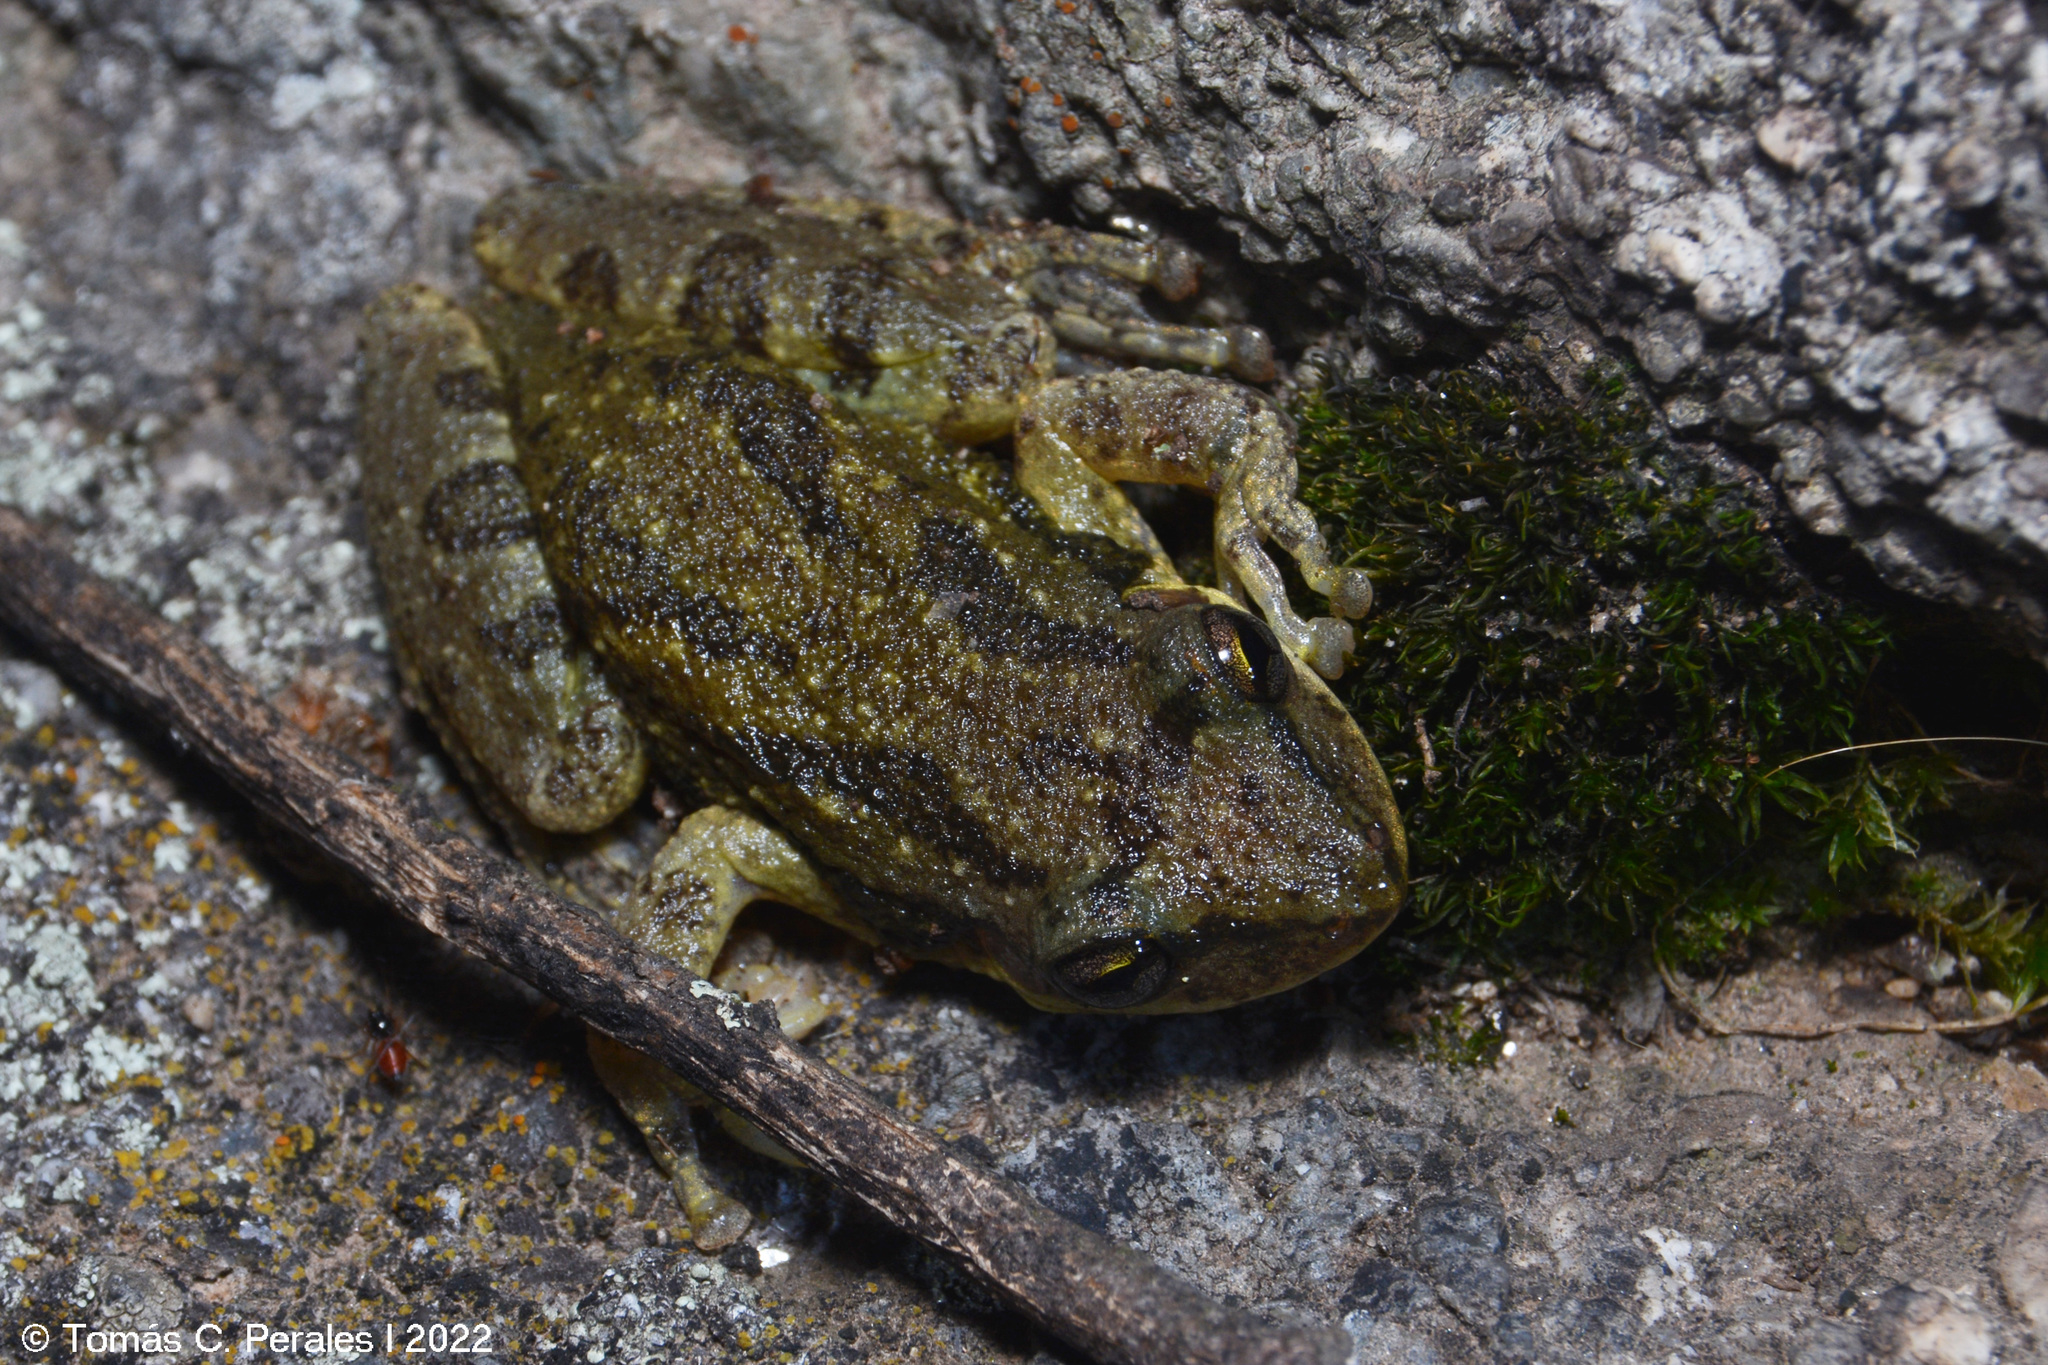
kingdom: Animalia
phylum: Chordata
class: Amphibia
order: Anura
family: Hylidae
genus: Scinax
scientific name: Scinax nasicus
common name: Lesser snouted treefrog
